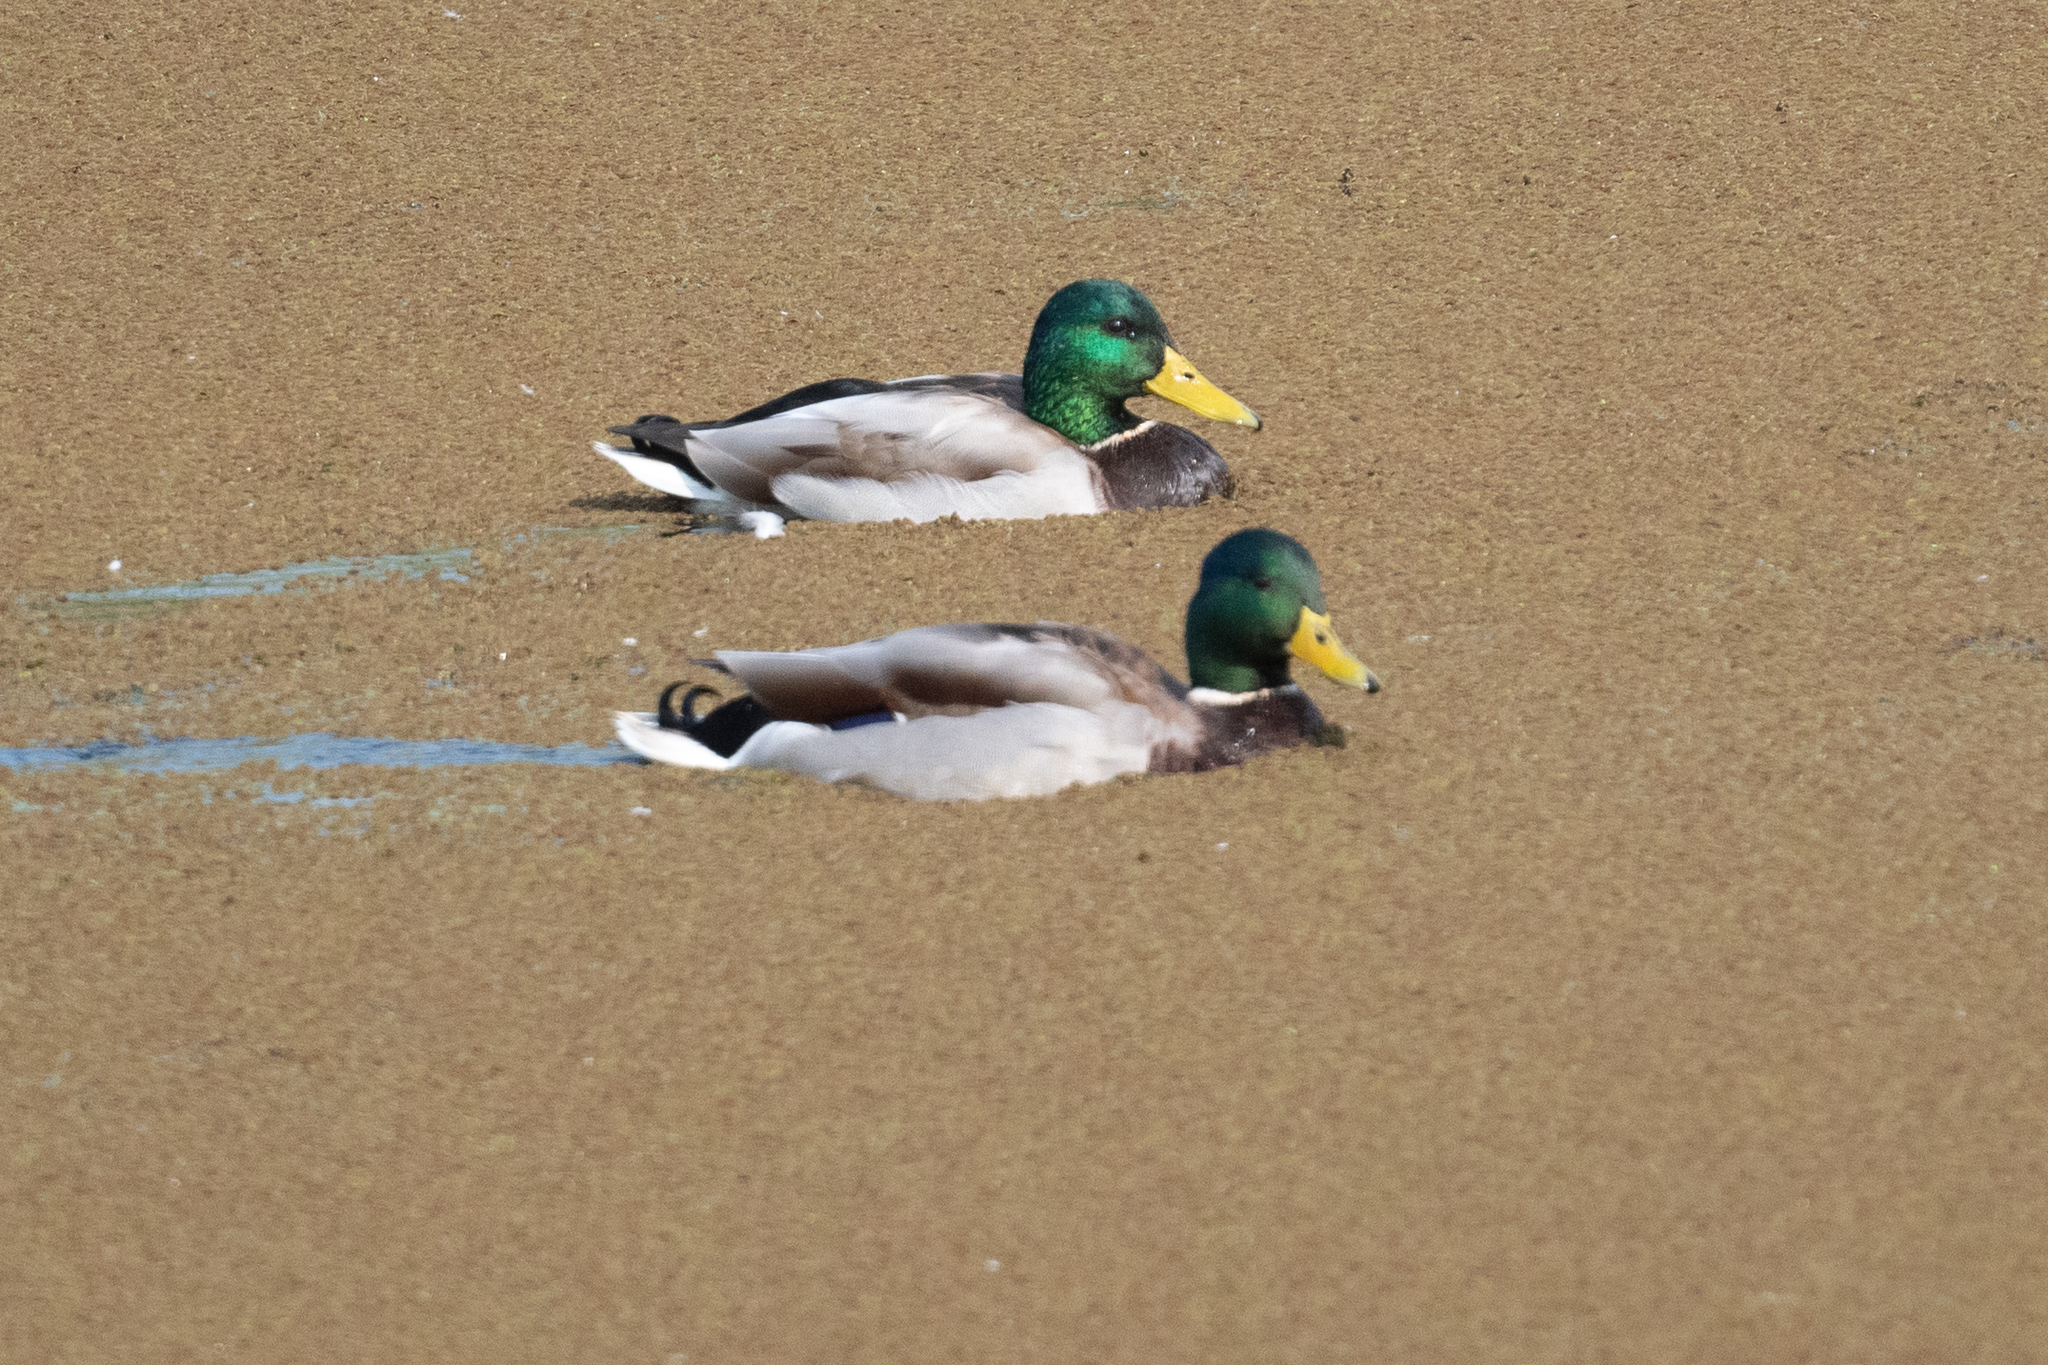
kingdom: Animalia
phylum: Chordata
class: Aves
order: Anseriformes
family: Anatidae
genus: Anas
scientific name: Anas platyrhynchos
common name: Mallard
